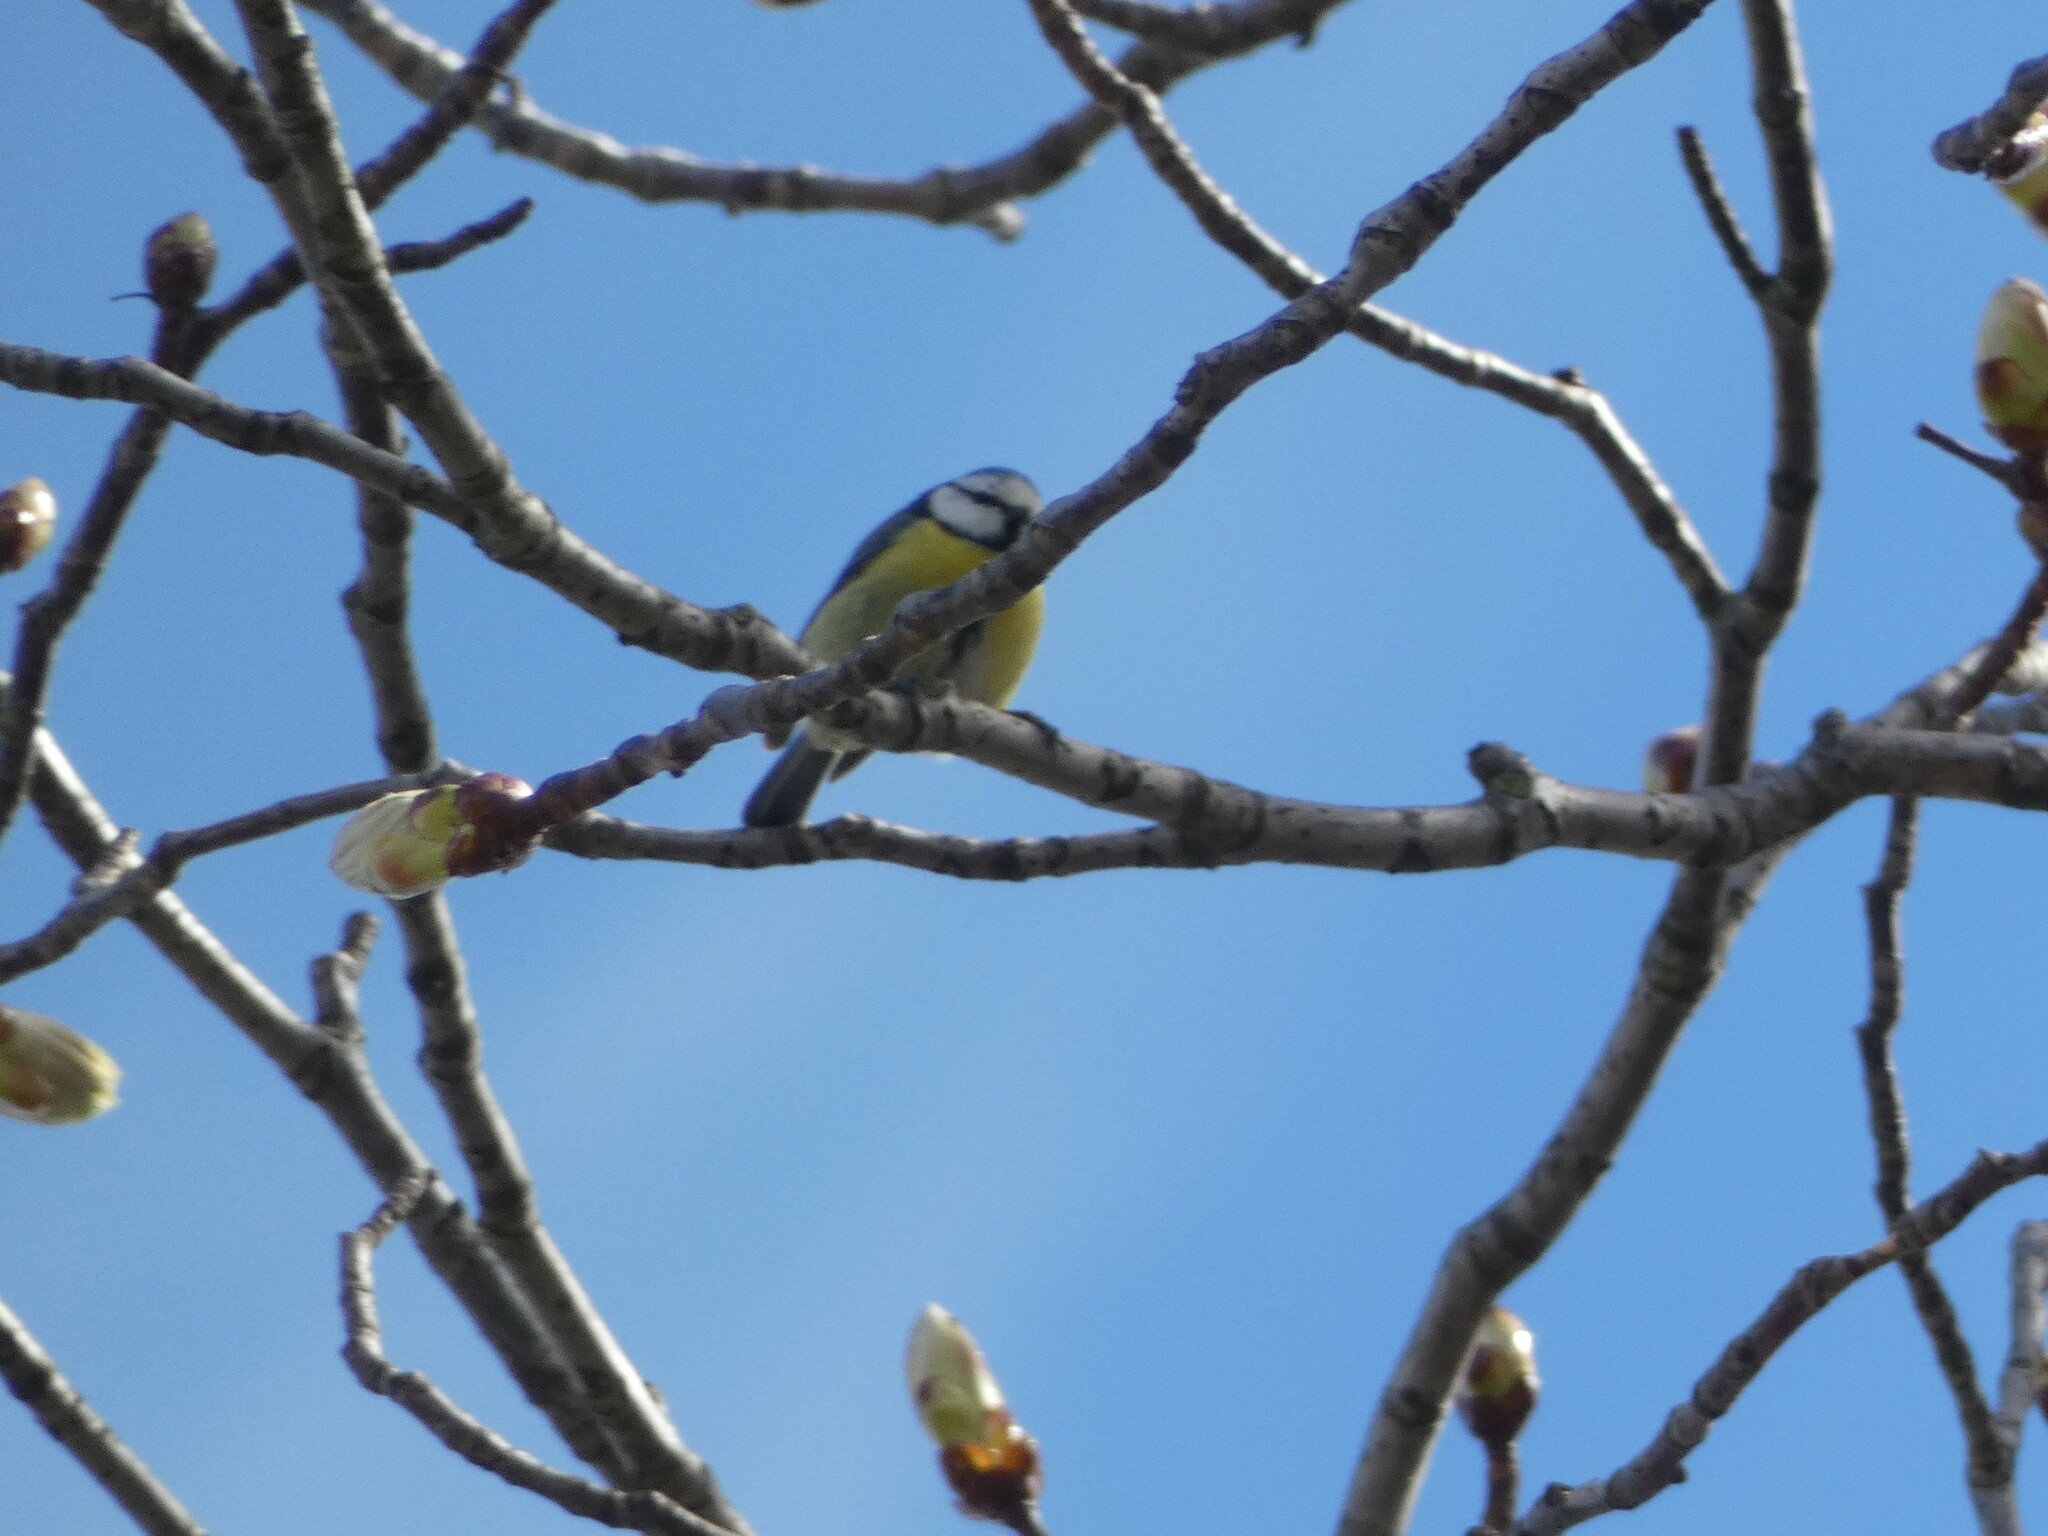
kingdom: Animalia
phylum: Chordata
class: Aves
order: Passeriformes
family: Paridae
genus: Cyanistes
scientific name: Cyanistes caeruleus
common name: Eurasian blue tit
